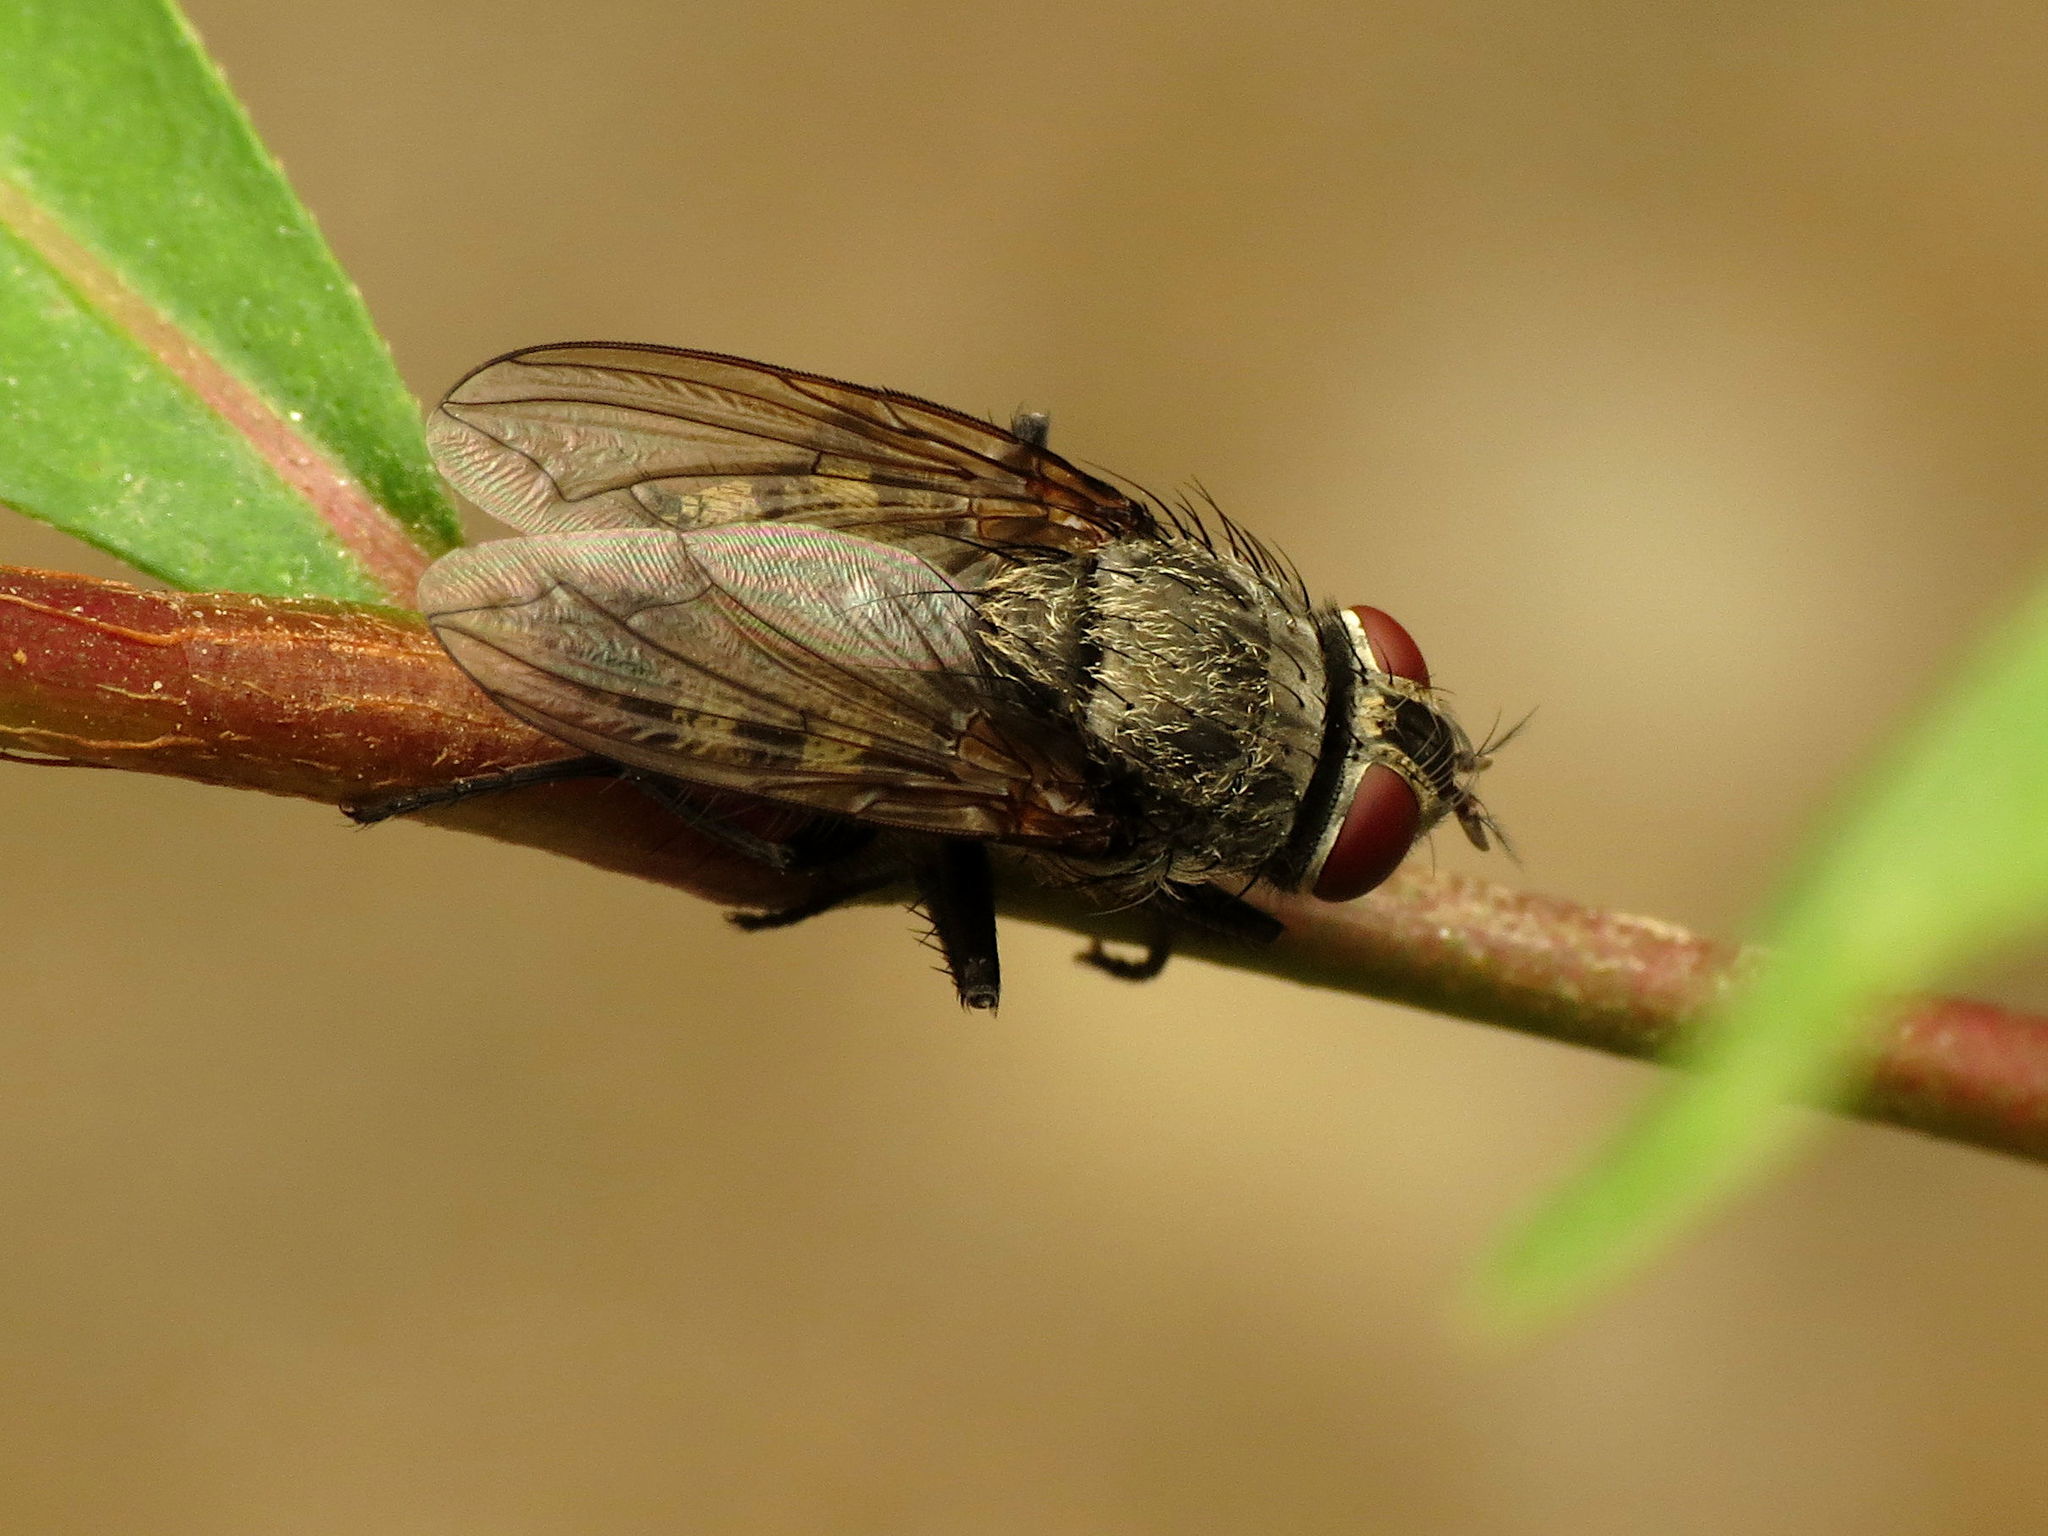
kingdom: Animalia
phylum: Arthropoda
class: Insecta
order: Diptera
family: Polleniidae
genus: Pollenia
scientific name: Pollenia
